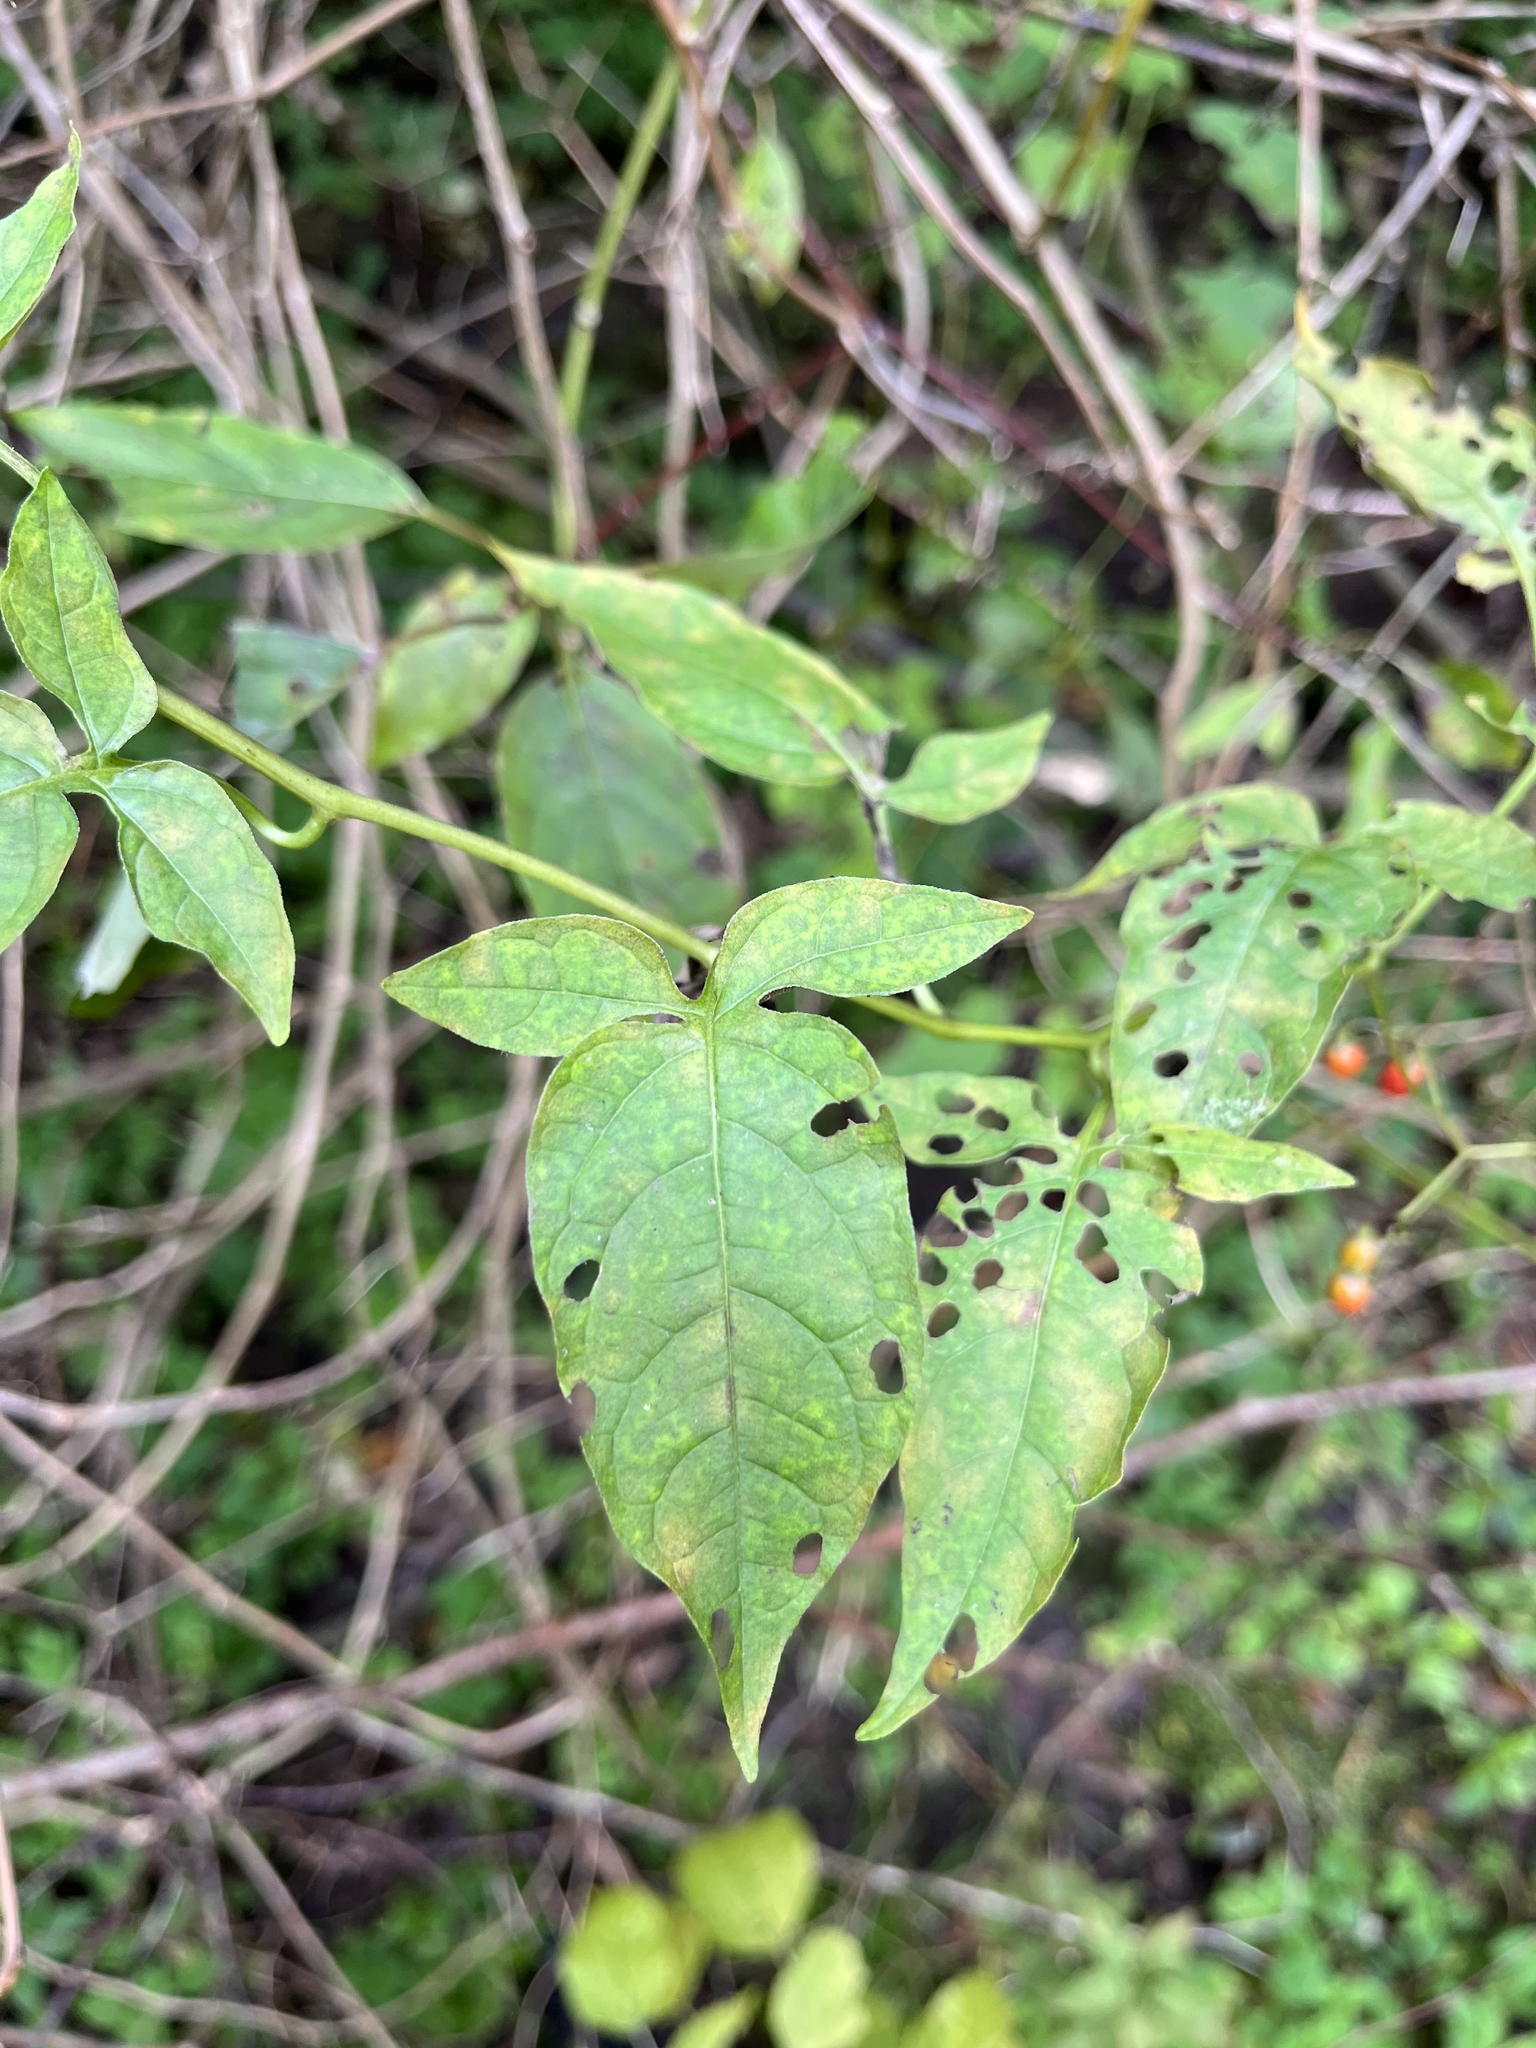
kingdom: Plantae
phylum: Tracheophyta
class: Magnoliopsida
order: Solanales
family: Solanaceae
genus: Solanum
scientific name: Solanum dulcamara
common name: Climbing nightshade
